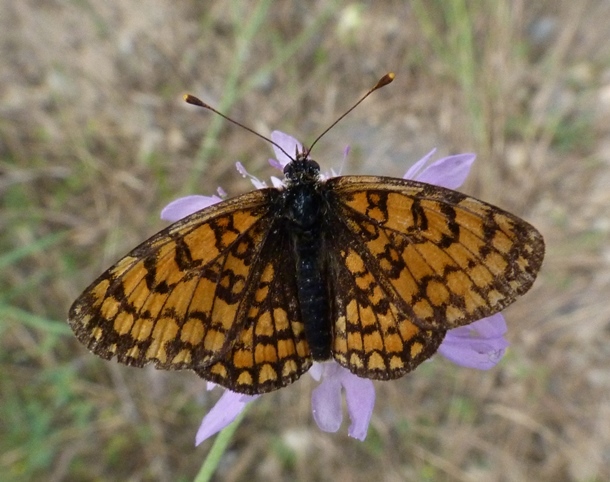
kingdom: Animalia
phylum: Arthropoda
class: Insecta
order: Lepidoptera
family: Nymphalidae
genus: Melitaea
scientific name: Melitaea deione
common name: Provençal fritillary
